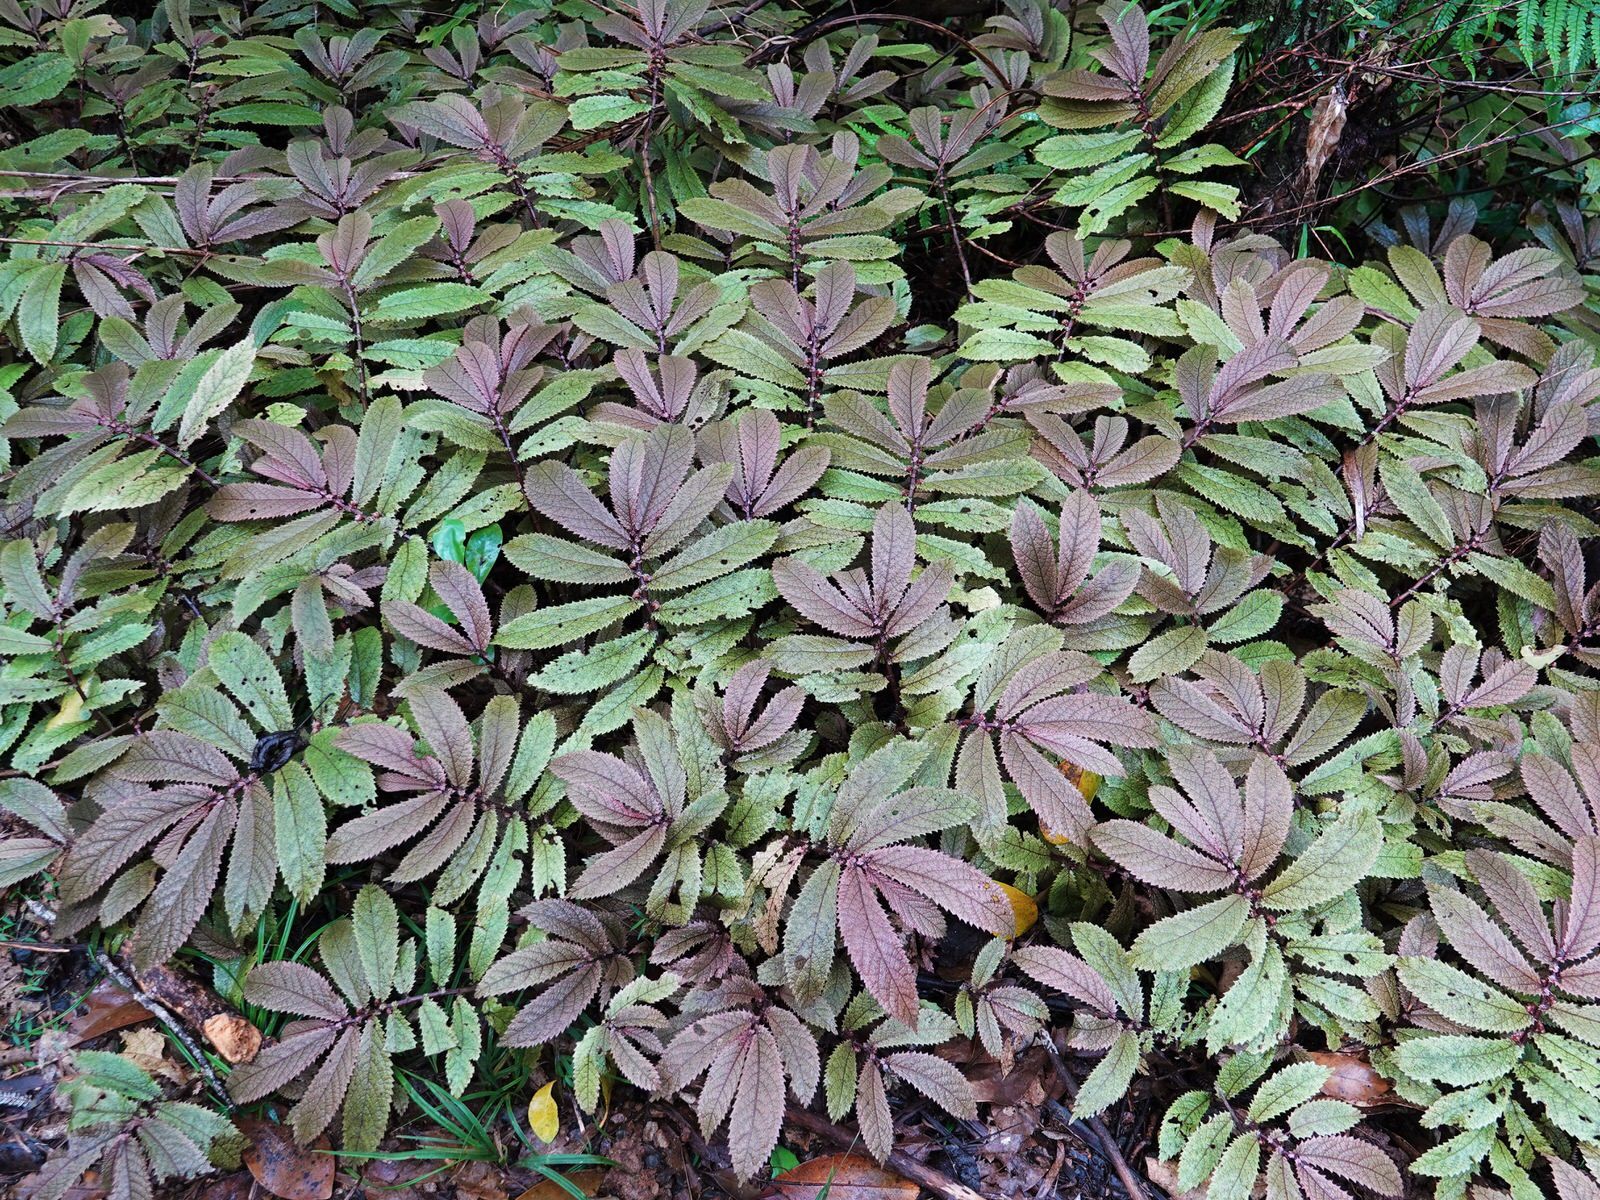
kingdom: Plantae
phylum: Tracheophyta
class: Magnoliopsida
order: Rosales
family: Urticaceae
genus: Elatostema
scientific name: Elatostema rugosum
